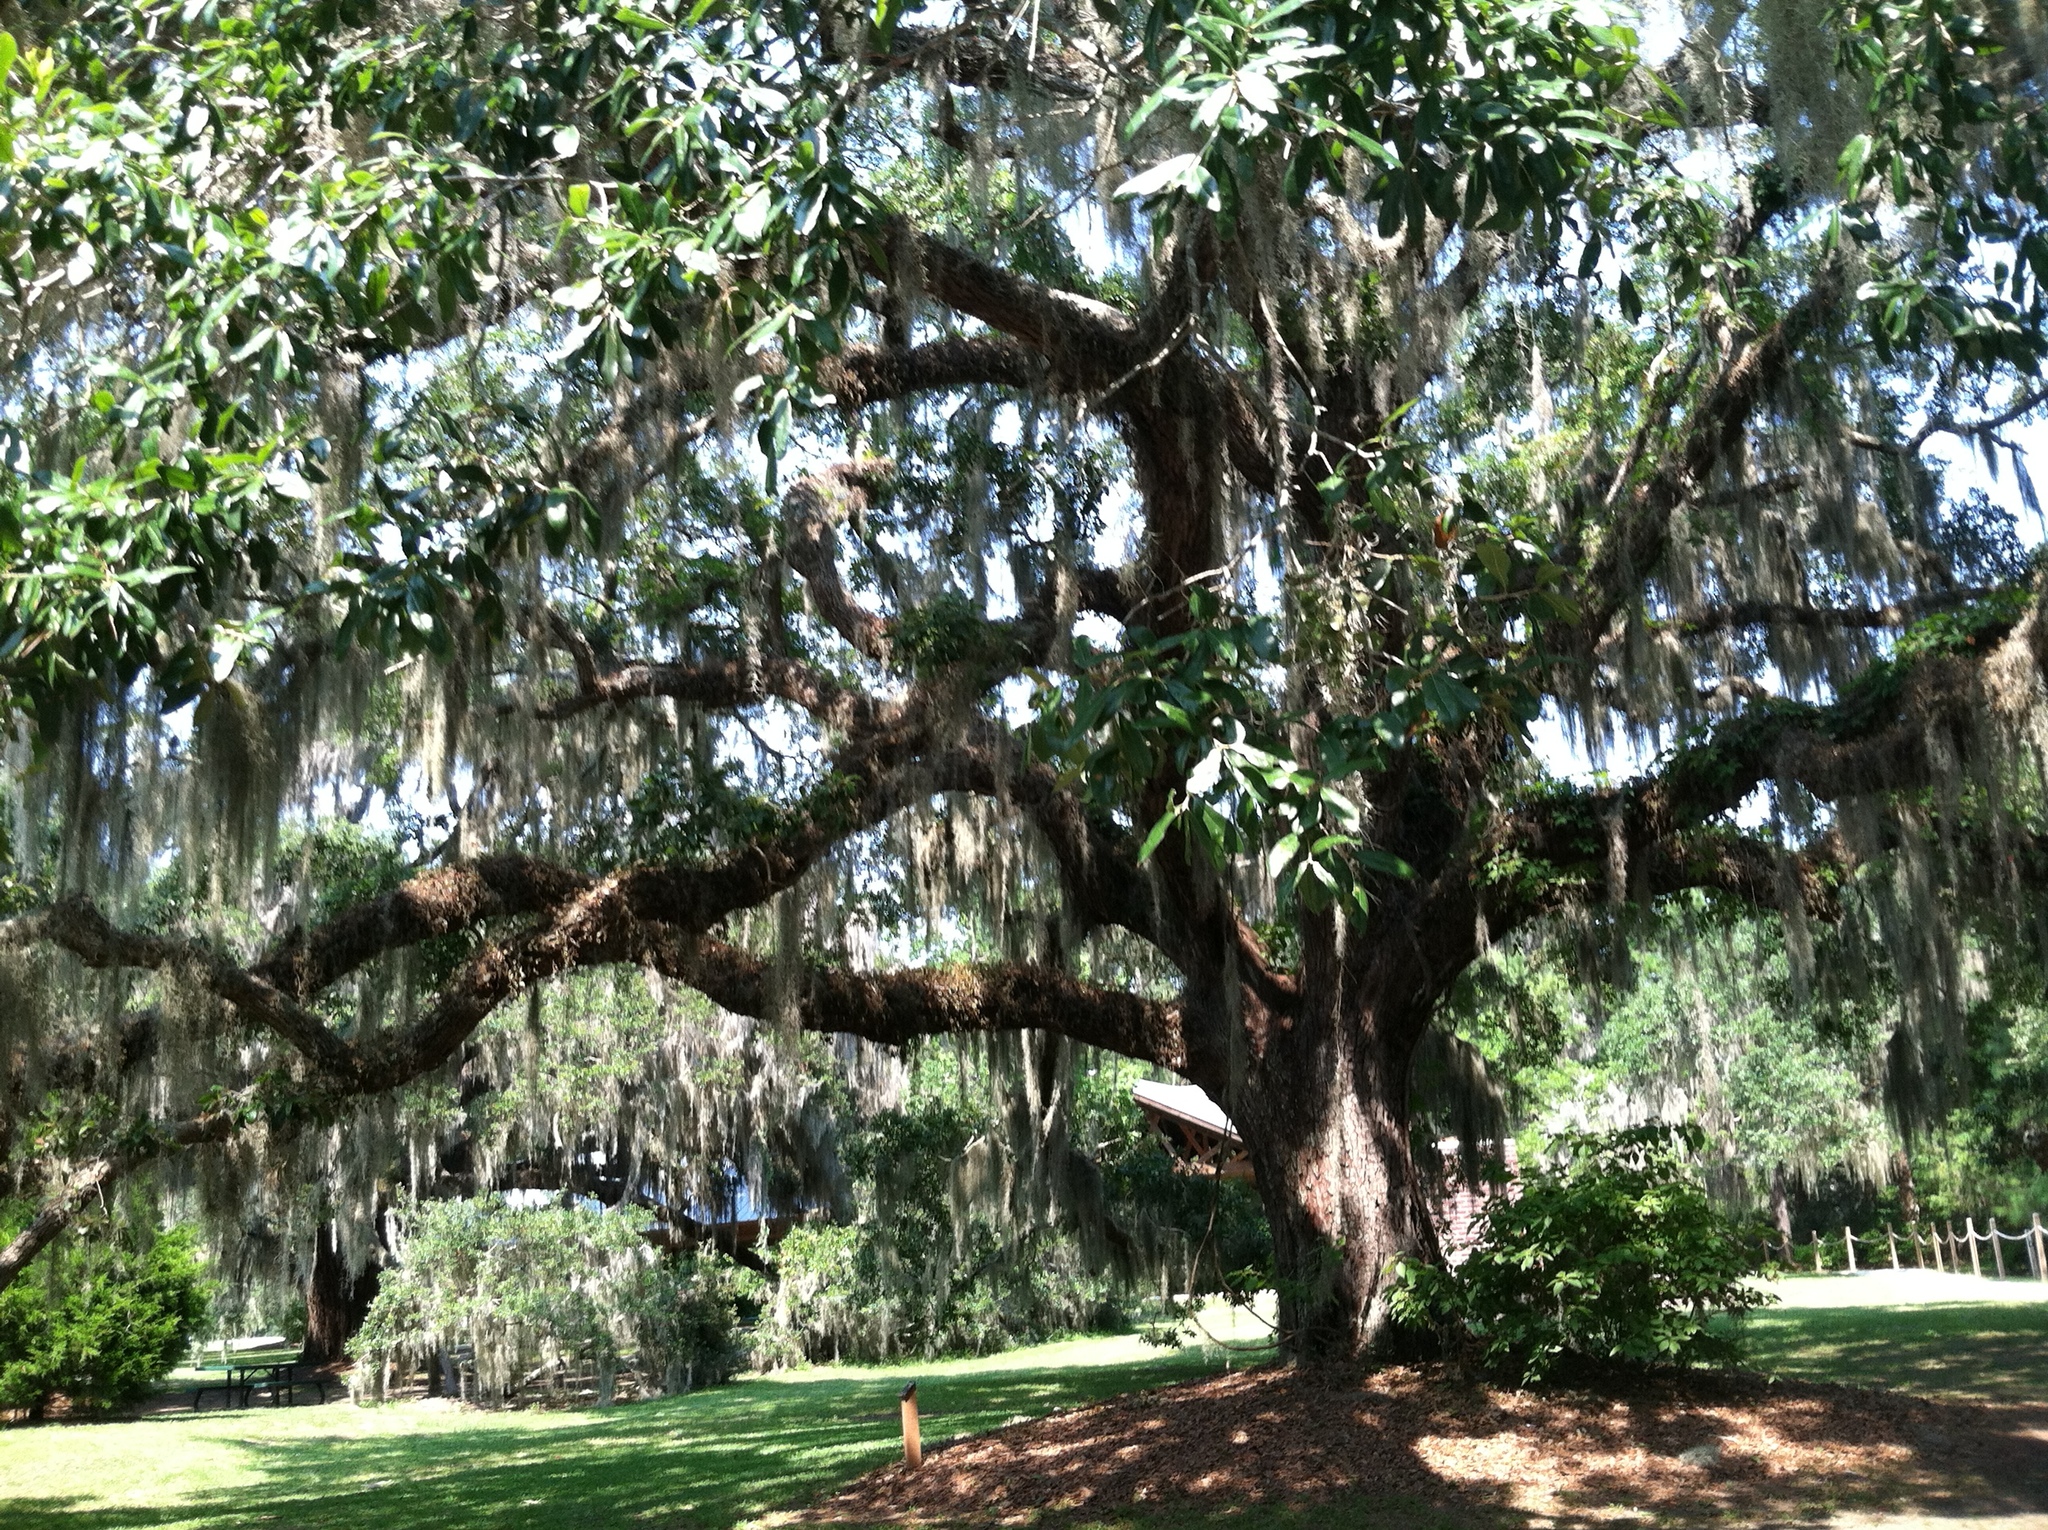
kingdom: Plantae
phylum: Tracheophyta
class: Liliopsida
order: Poales
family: Bromeliaceae
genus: Tillandsia
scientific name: Tillandsia usneoides
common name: Spanish moss
